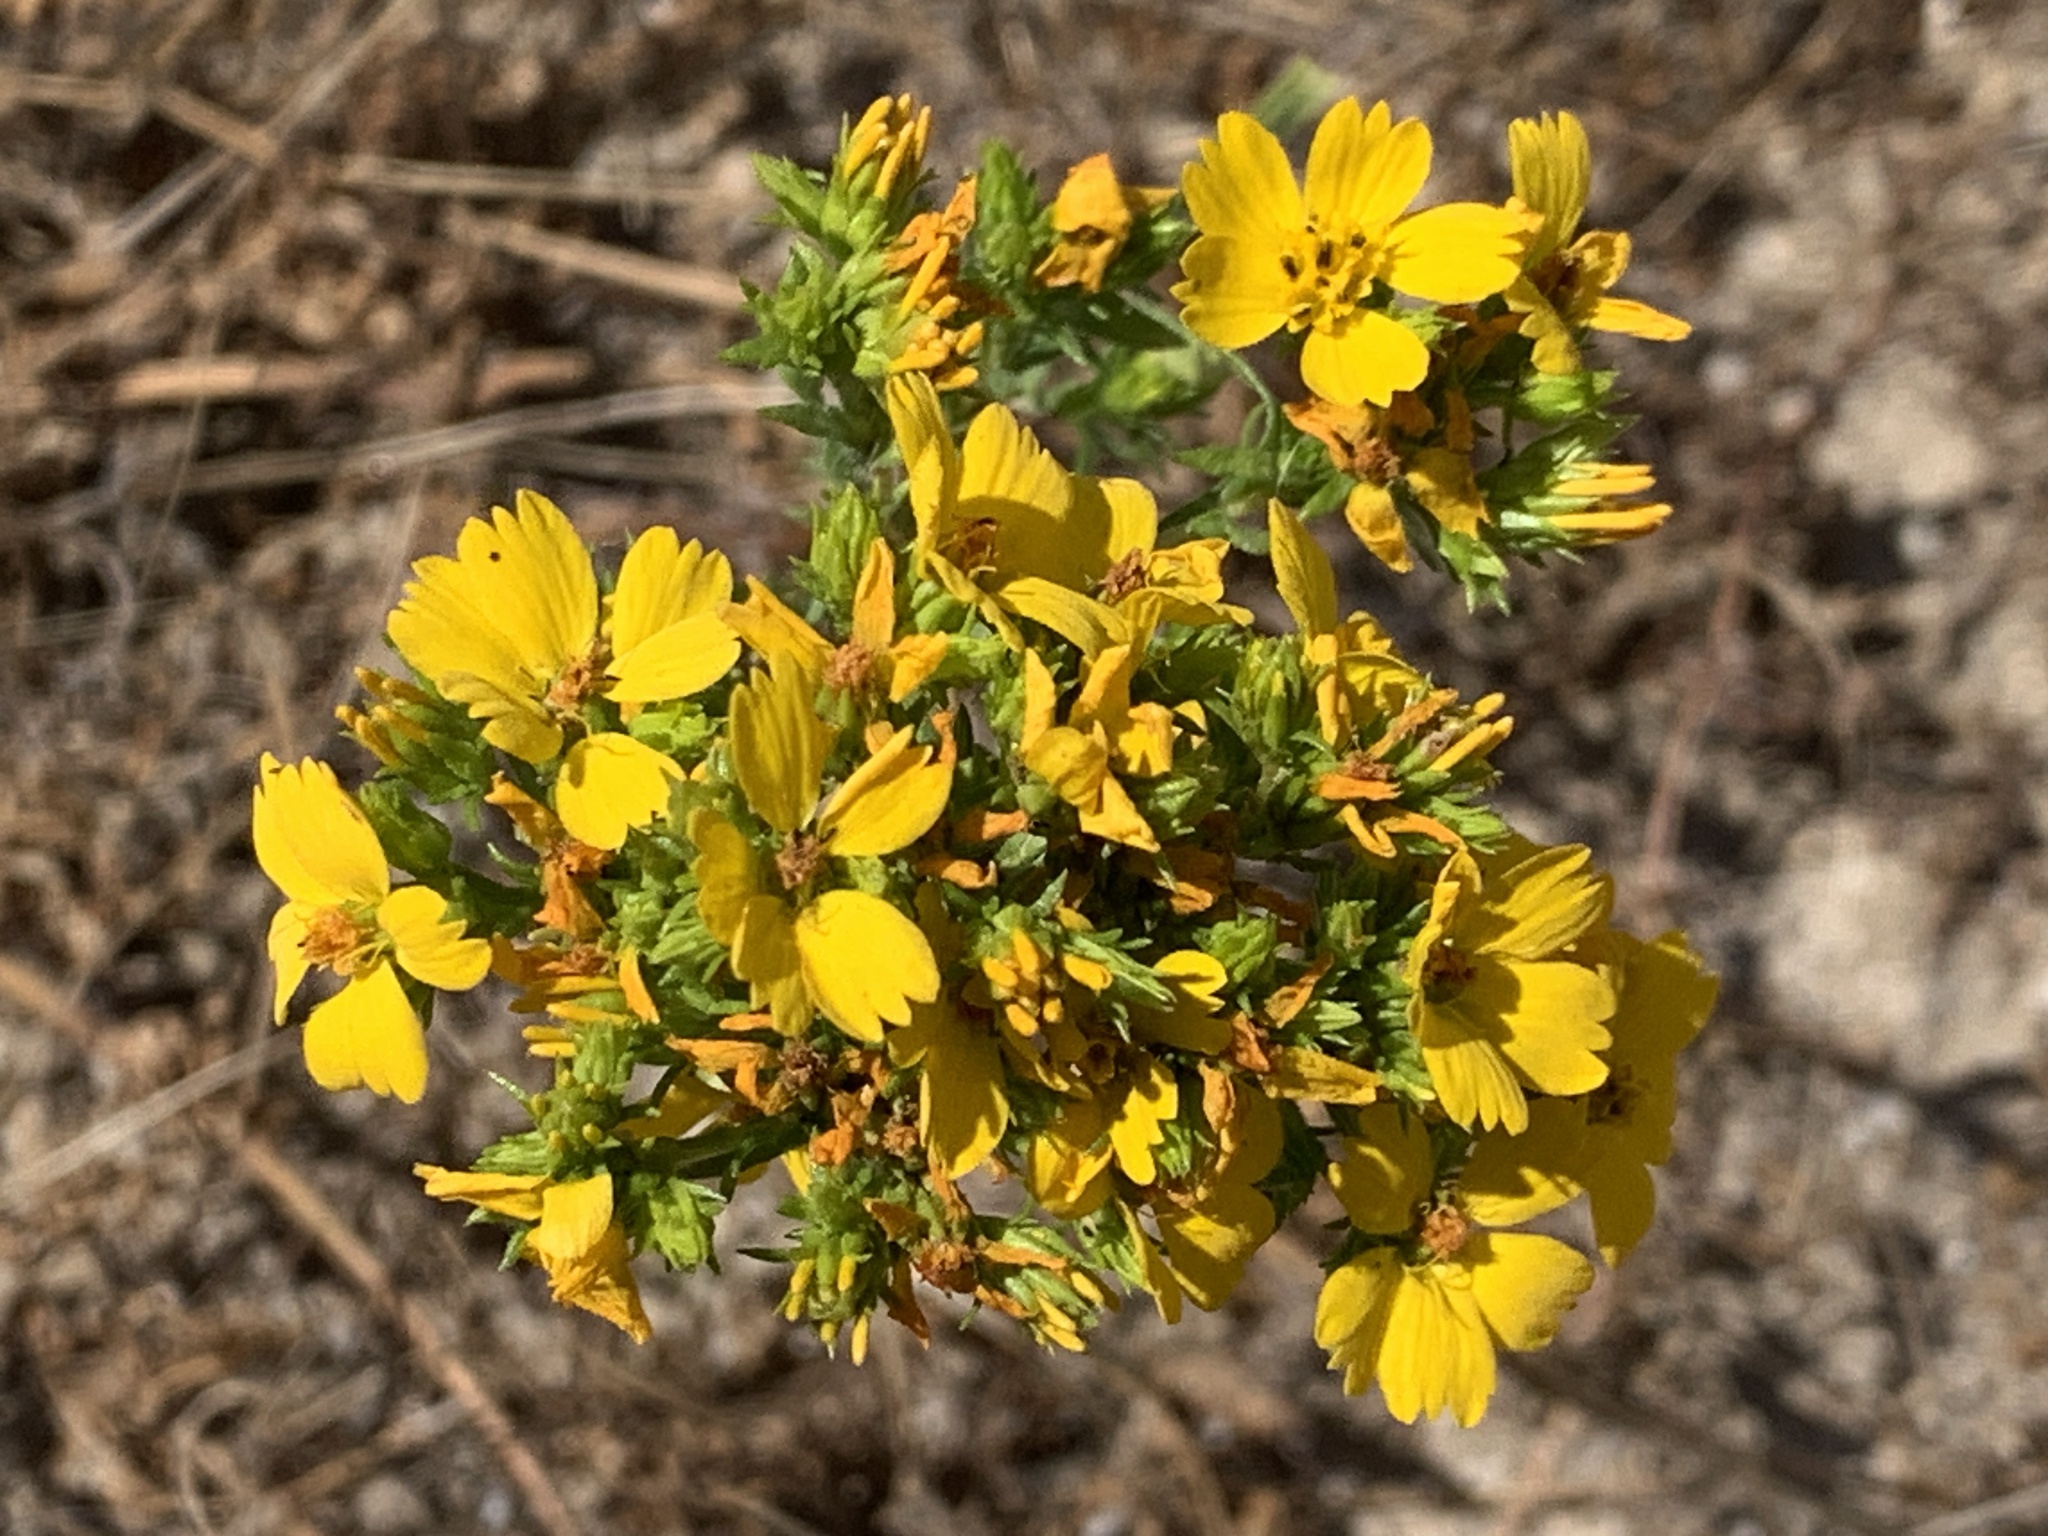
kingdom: Plantae
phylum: Tracheophyta
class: Magnoliopsida
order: Asterales
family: Asteraceae
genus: Deinandra
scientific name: Deinandra fasciculata
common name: Clustered tarweed
